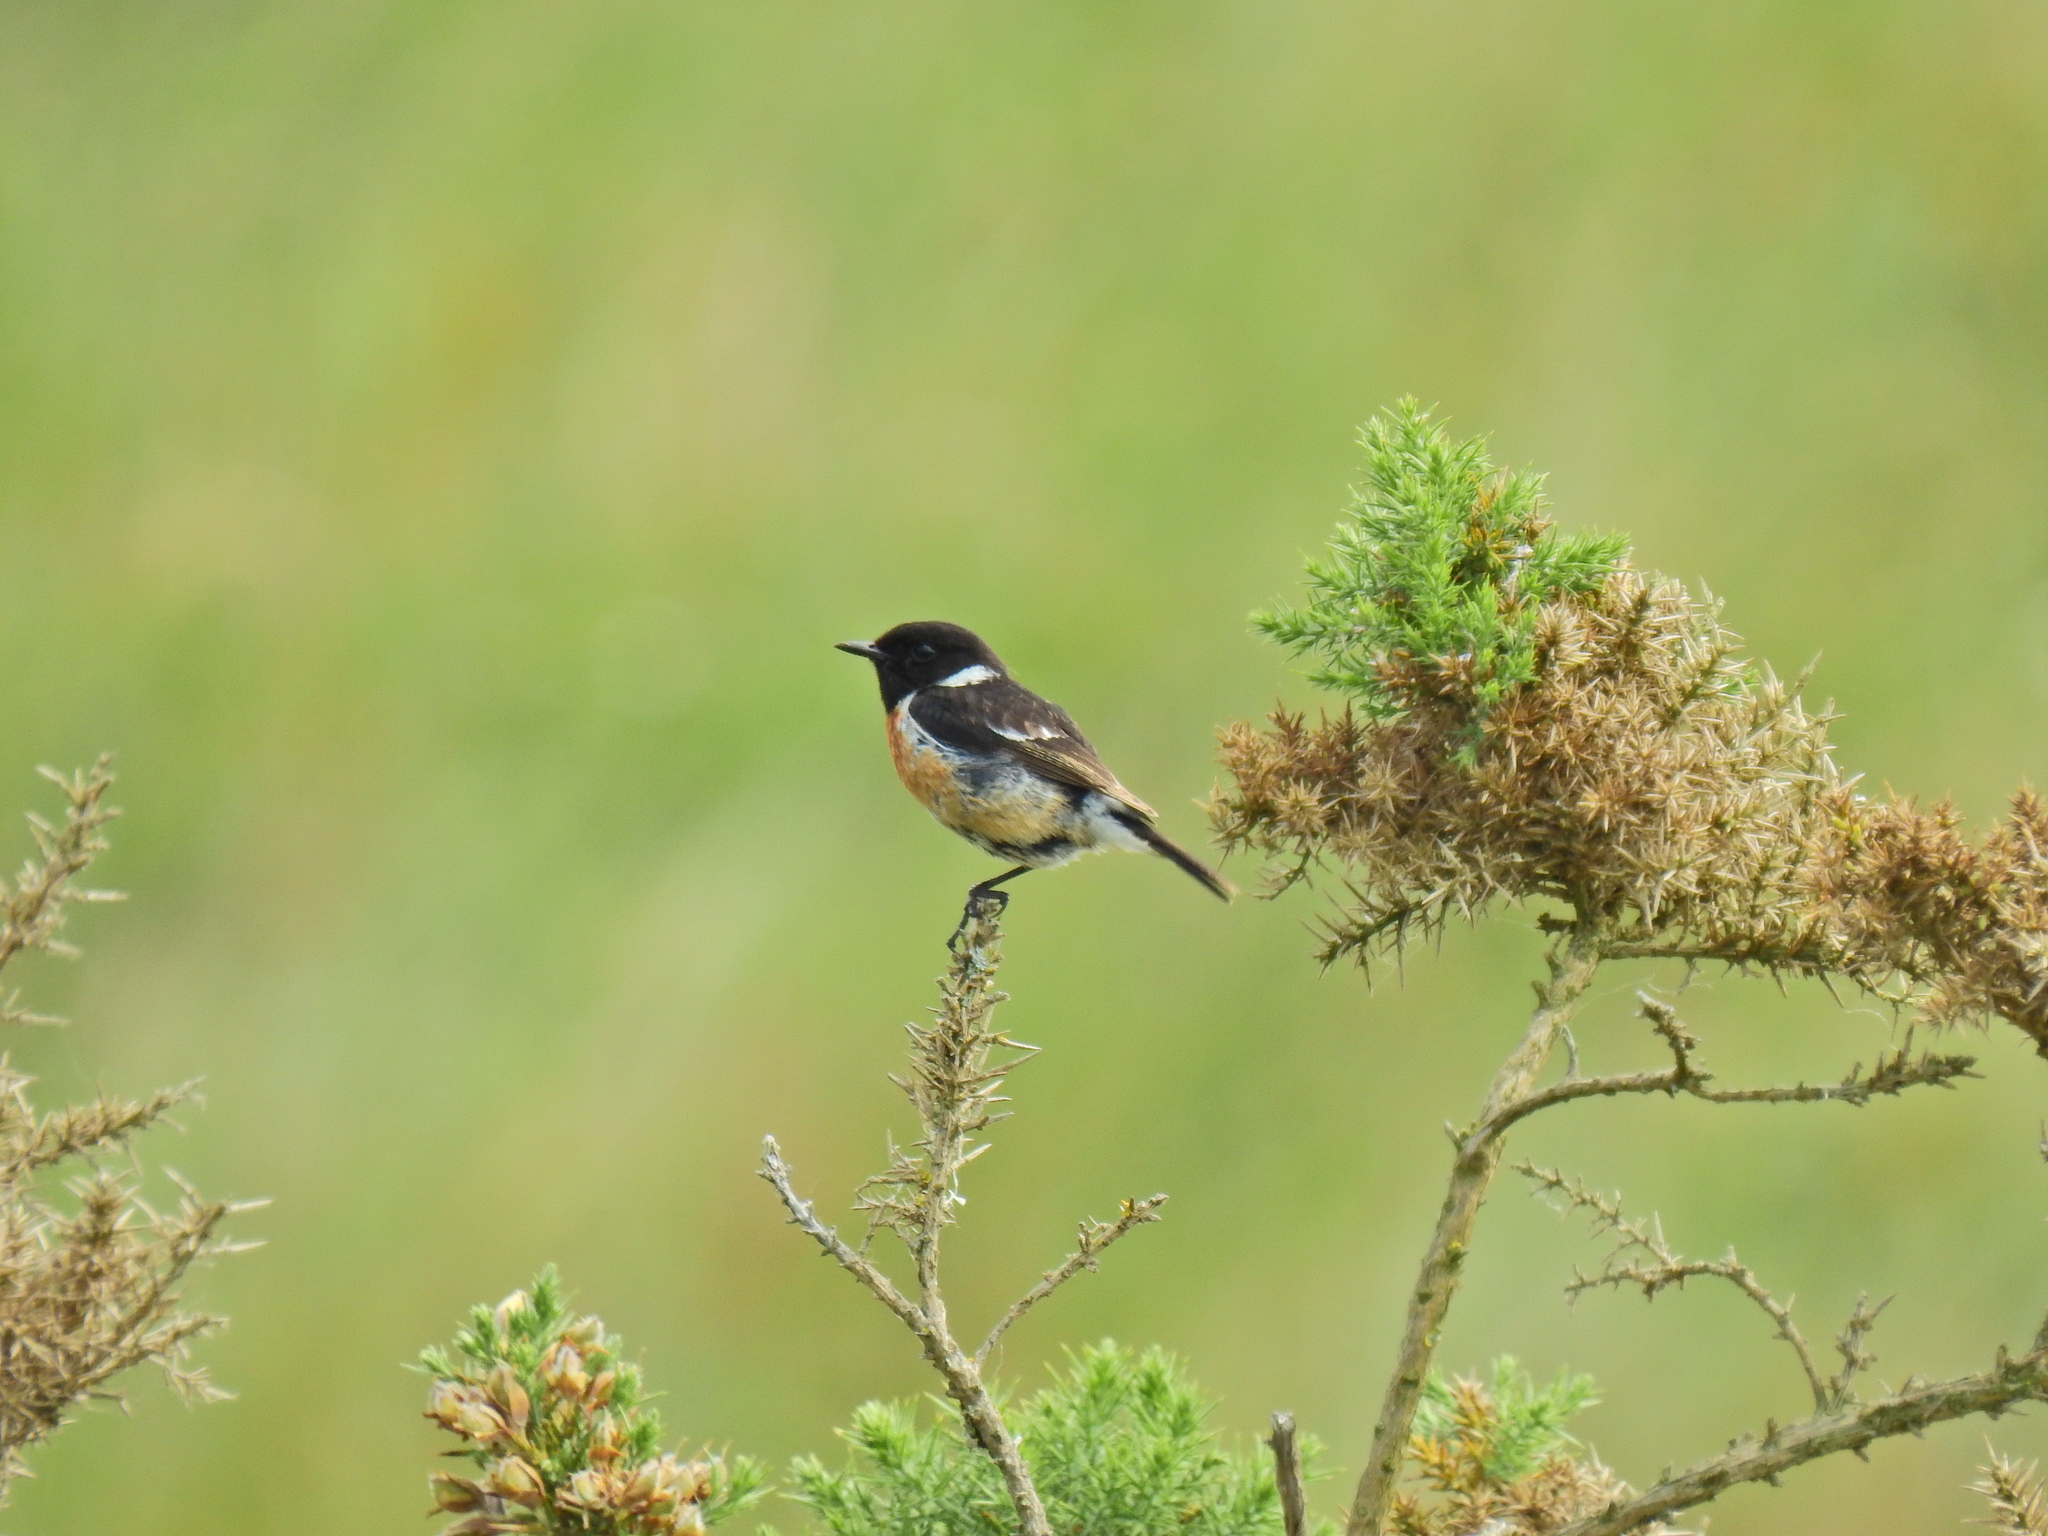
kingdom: Animalia
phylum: Chordata
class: Aves
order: Passeriformes
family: Muscicapidae
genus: Saxicola
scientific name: Saxicola rubicola
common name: European stonechat
